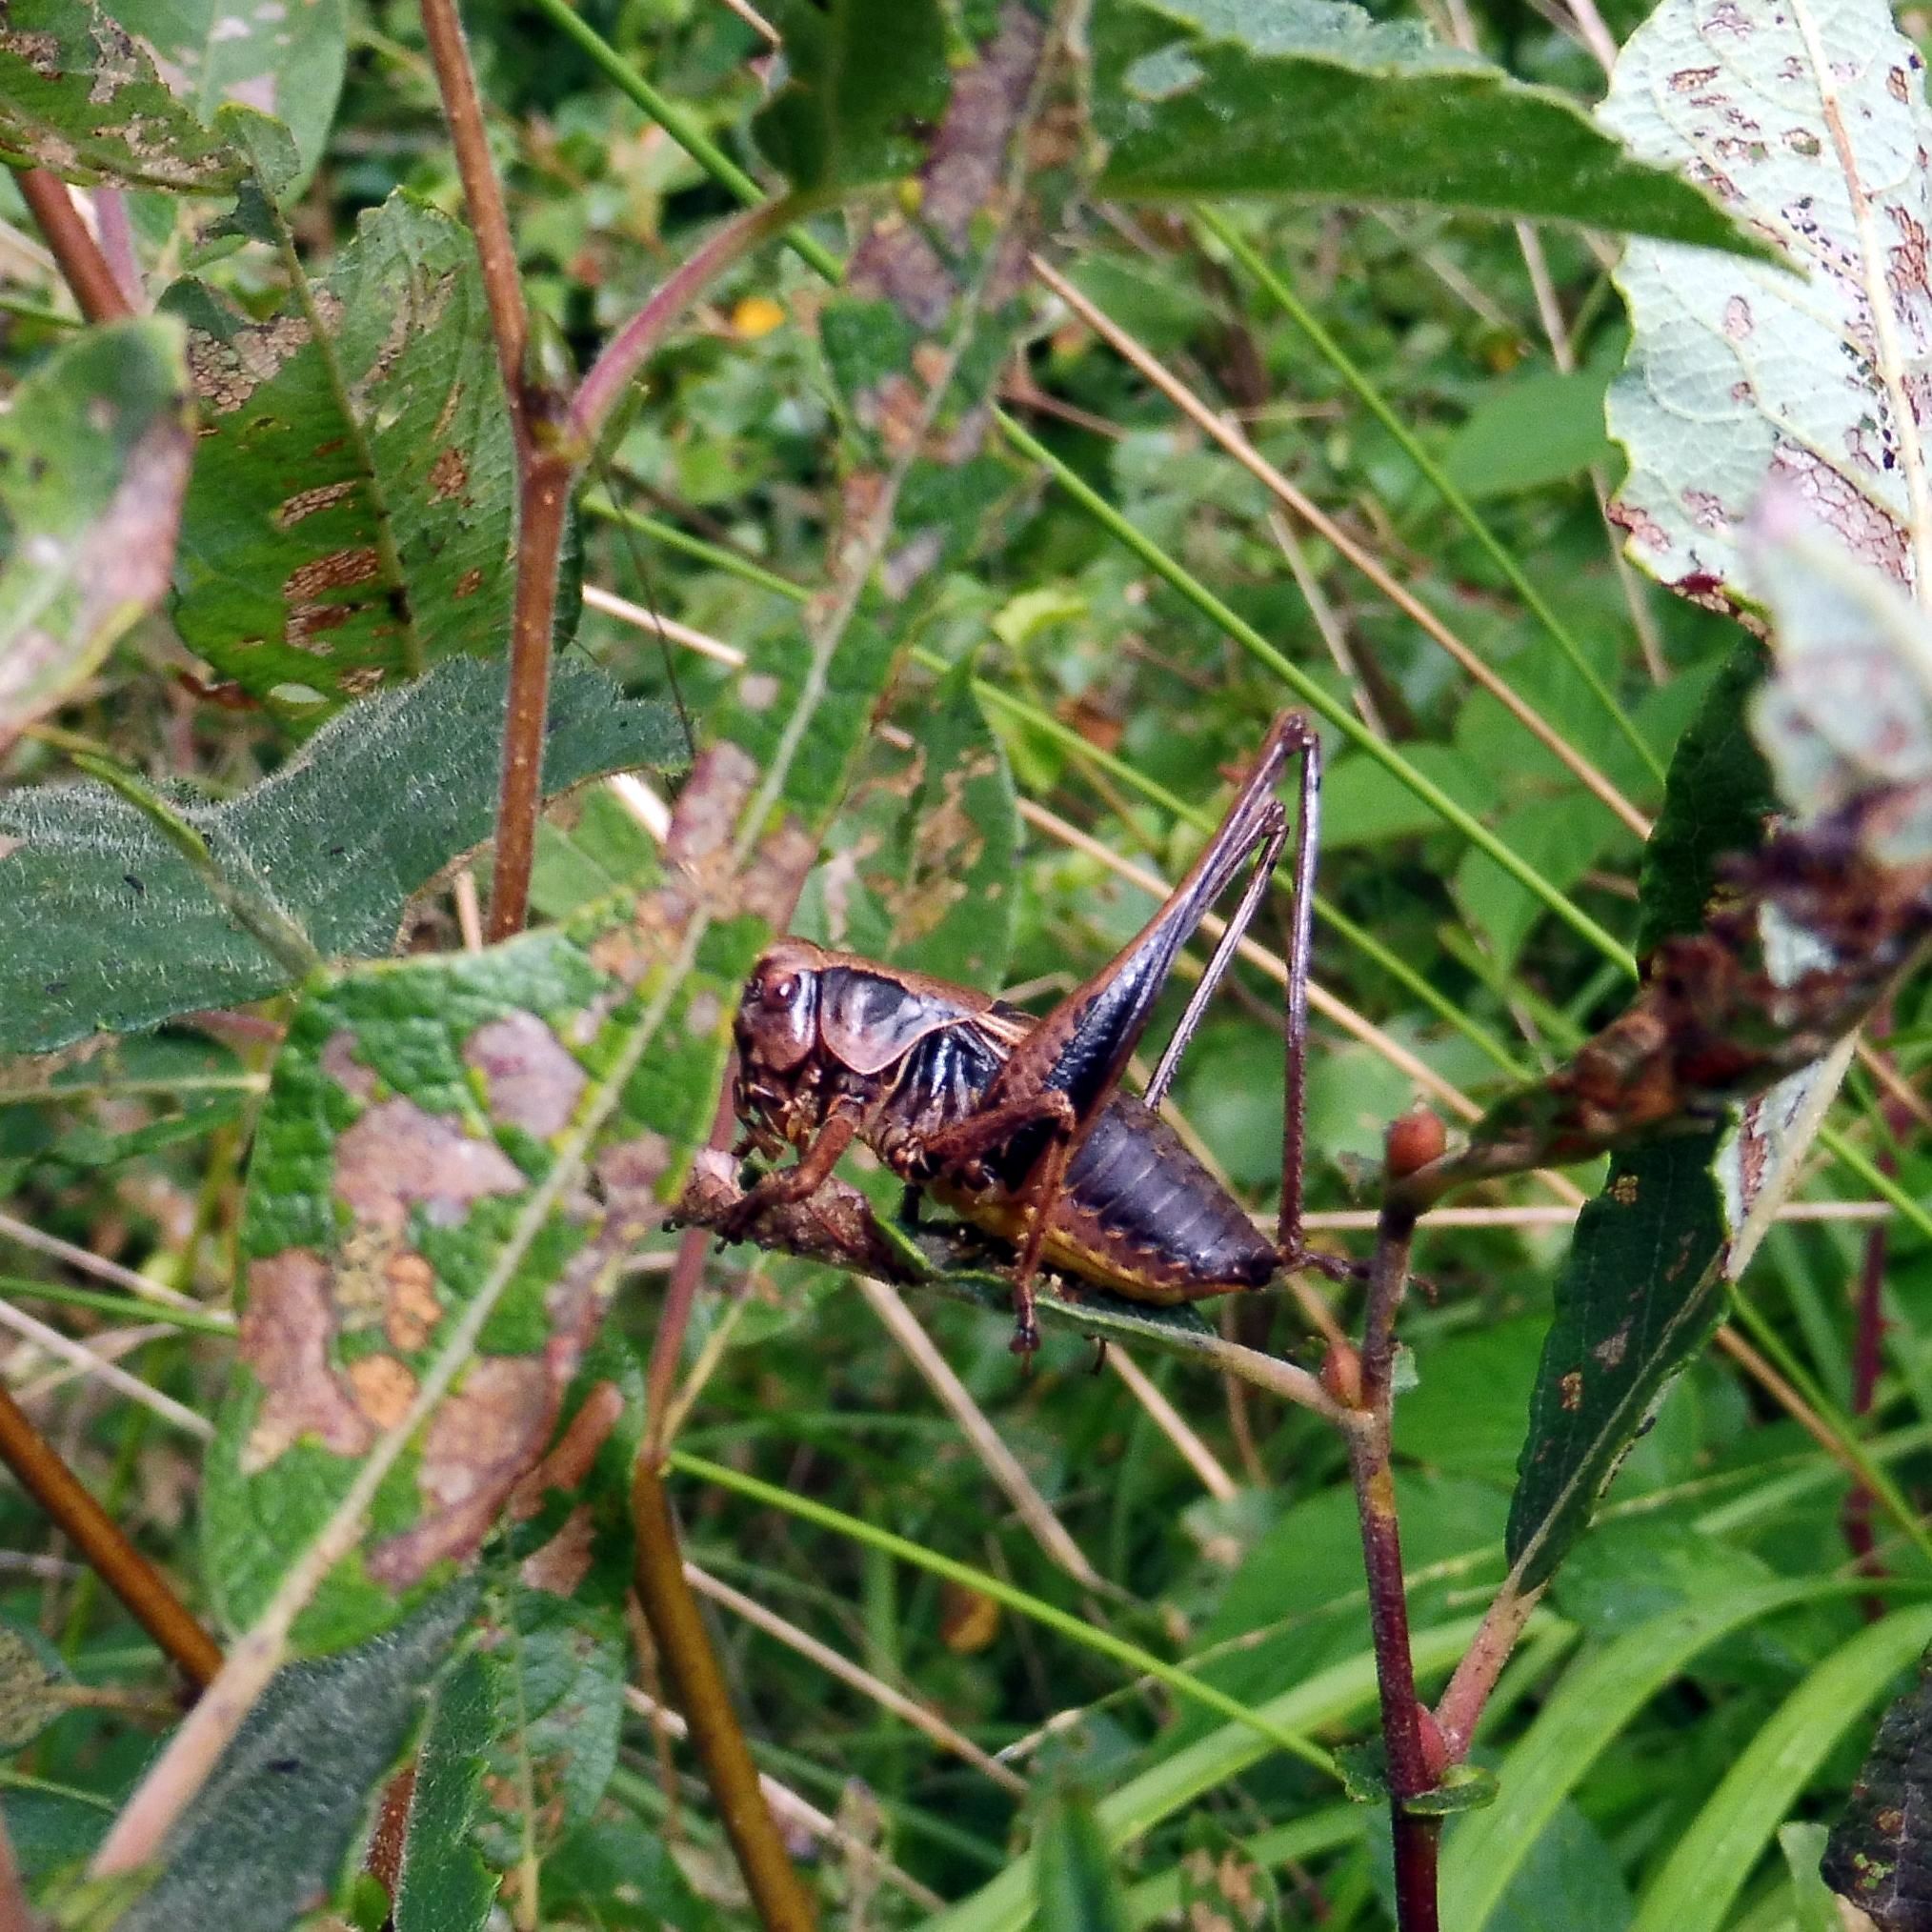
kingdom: Animalia
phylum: Arthropoda
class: Insecta
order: Orthoptera
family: Tettigoniidae
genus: Pholidoptera
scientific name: Pholidoptera griseoaptera
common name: Dark bush-cricket
